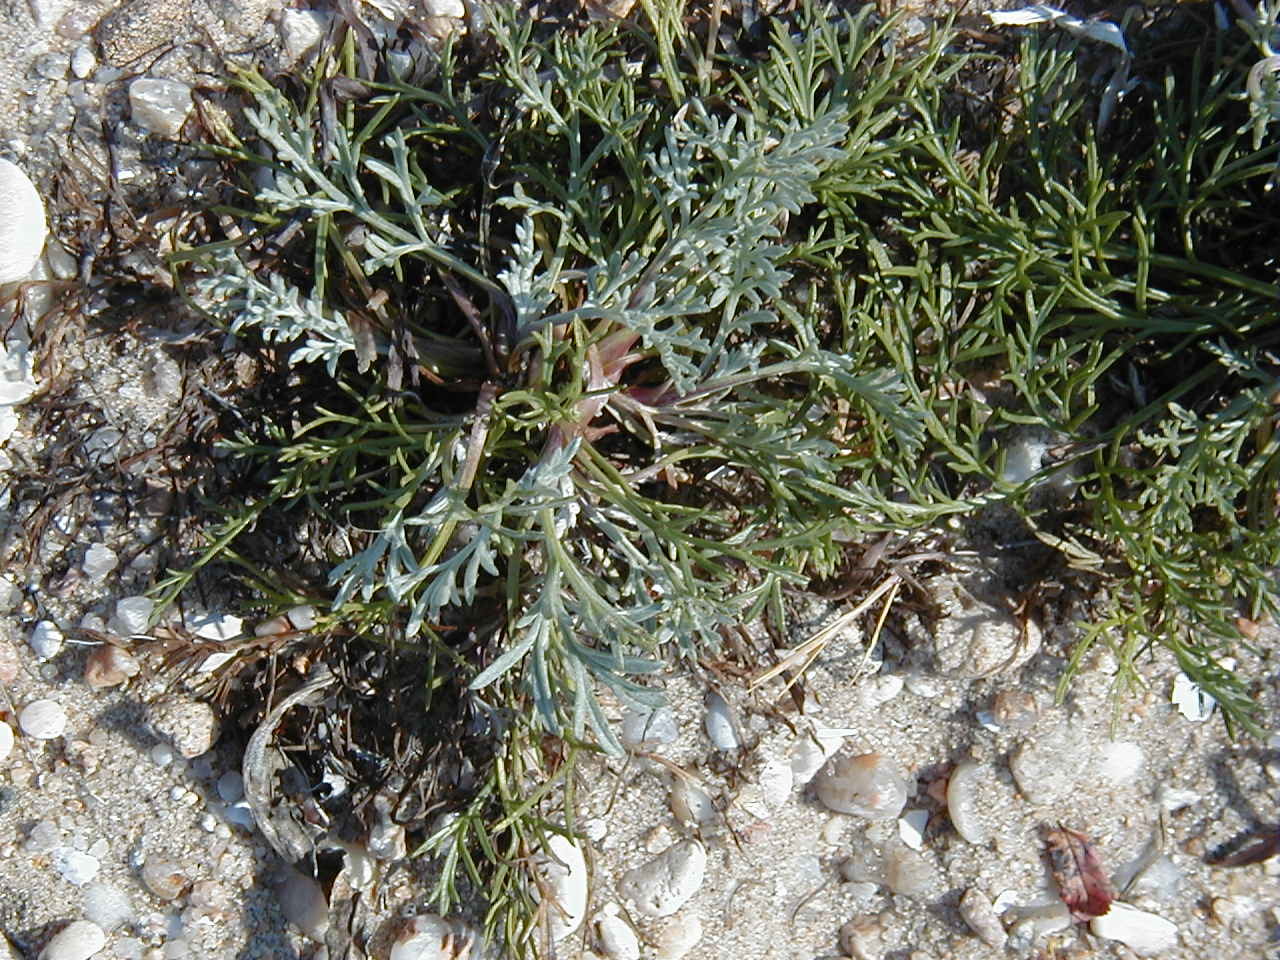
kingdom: Plantae
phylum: Tracheophyta
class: Magnoliopsida
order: Asterales
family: Asteraceae
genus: Artemisia
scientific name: Artemisia campestris
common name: Field wormwood
